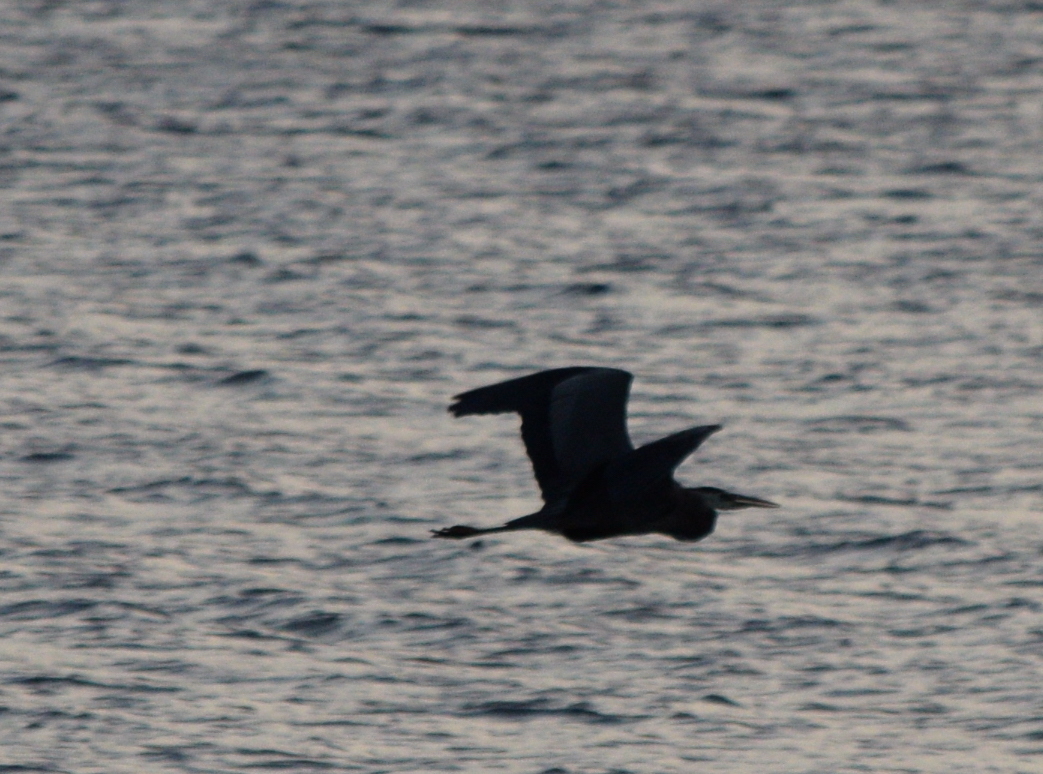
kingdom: Animalia
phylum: Chordata
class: Aves
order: Pelecaniformes
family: Ardeidae
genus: Ardea
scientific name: Ardea herodias
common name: Great blue heron
